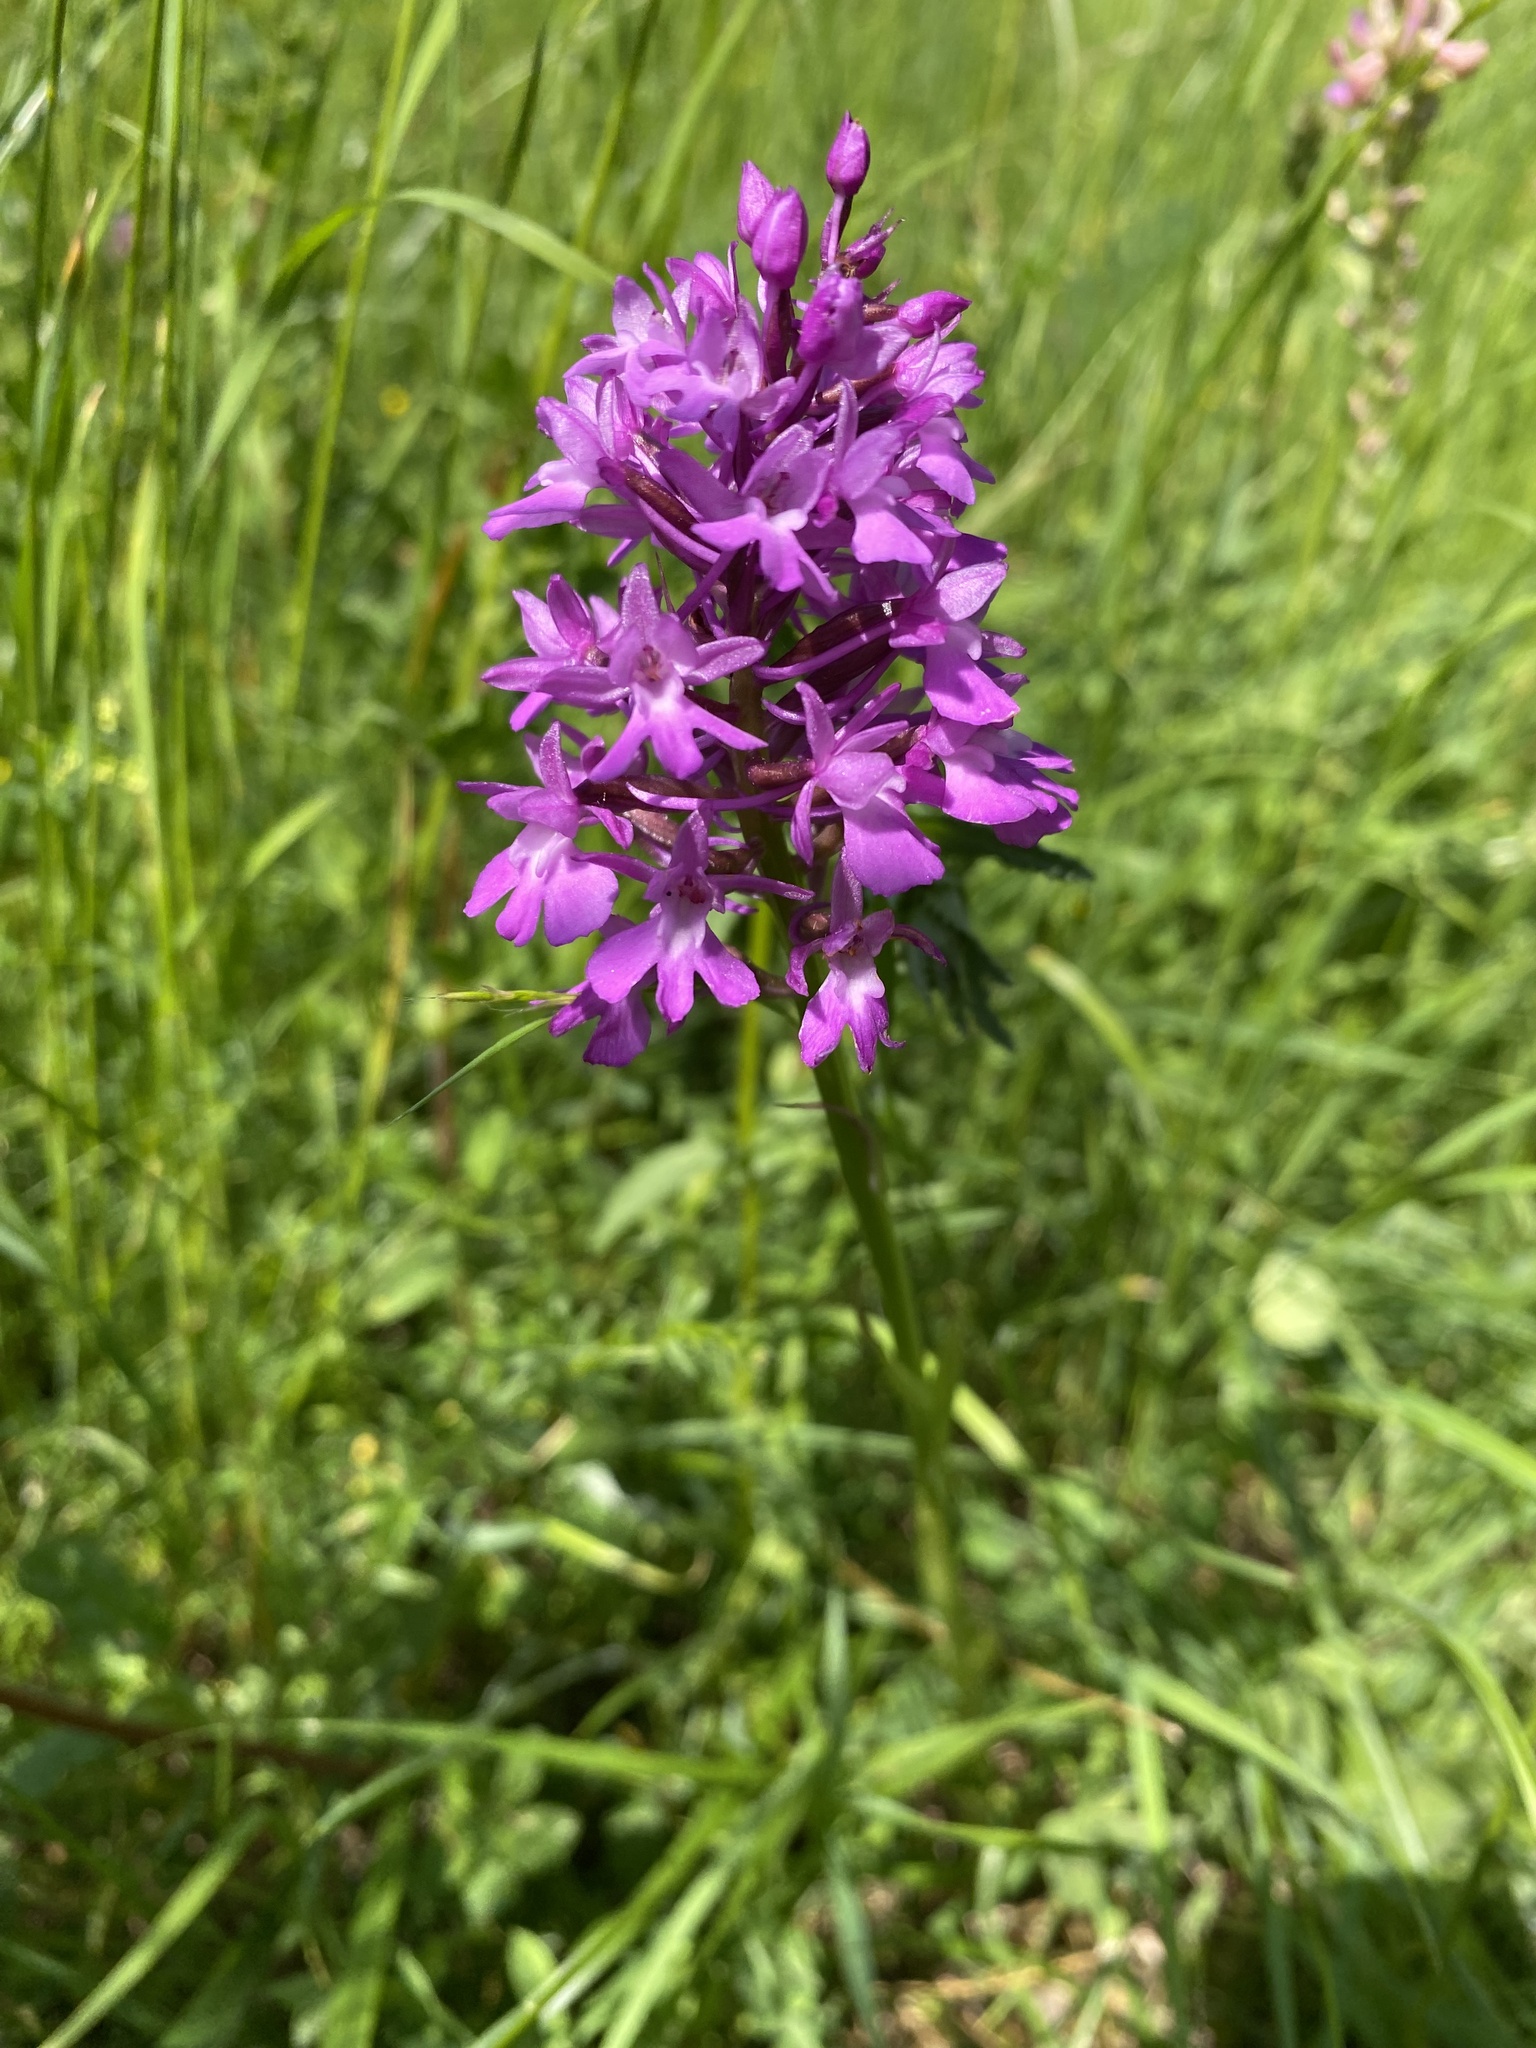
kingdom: Plantae
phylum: Tracheophyta
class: Liliopsida
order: Asparagales
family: Orchidaceae
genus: Anacamptis
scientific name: Anacamptis pyramidalis
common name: Pyramidal orchid
